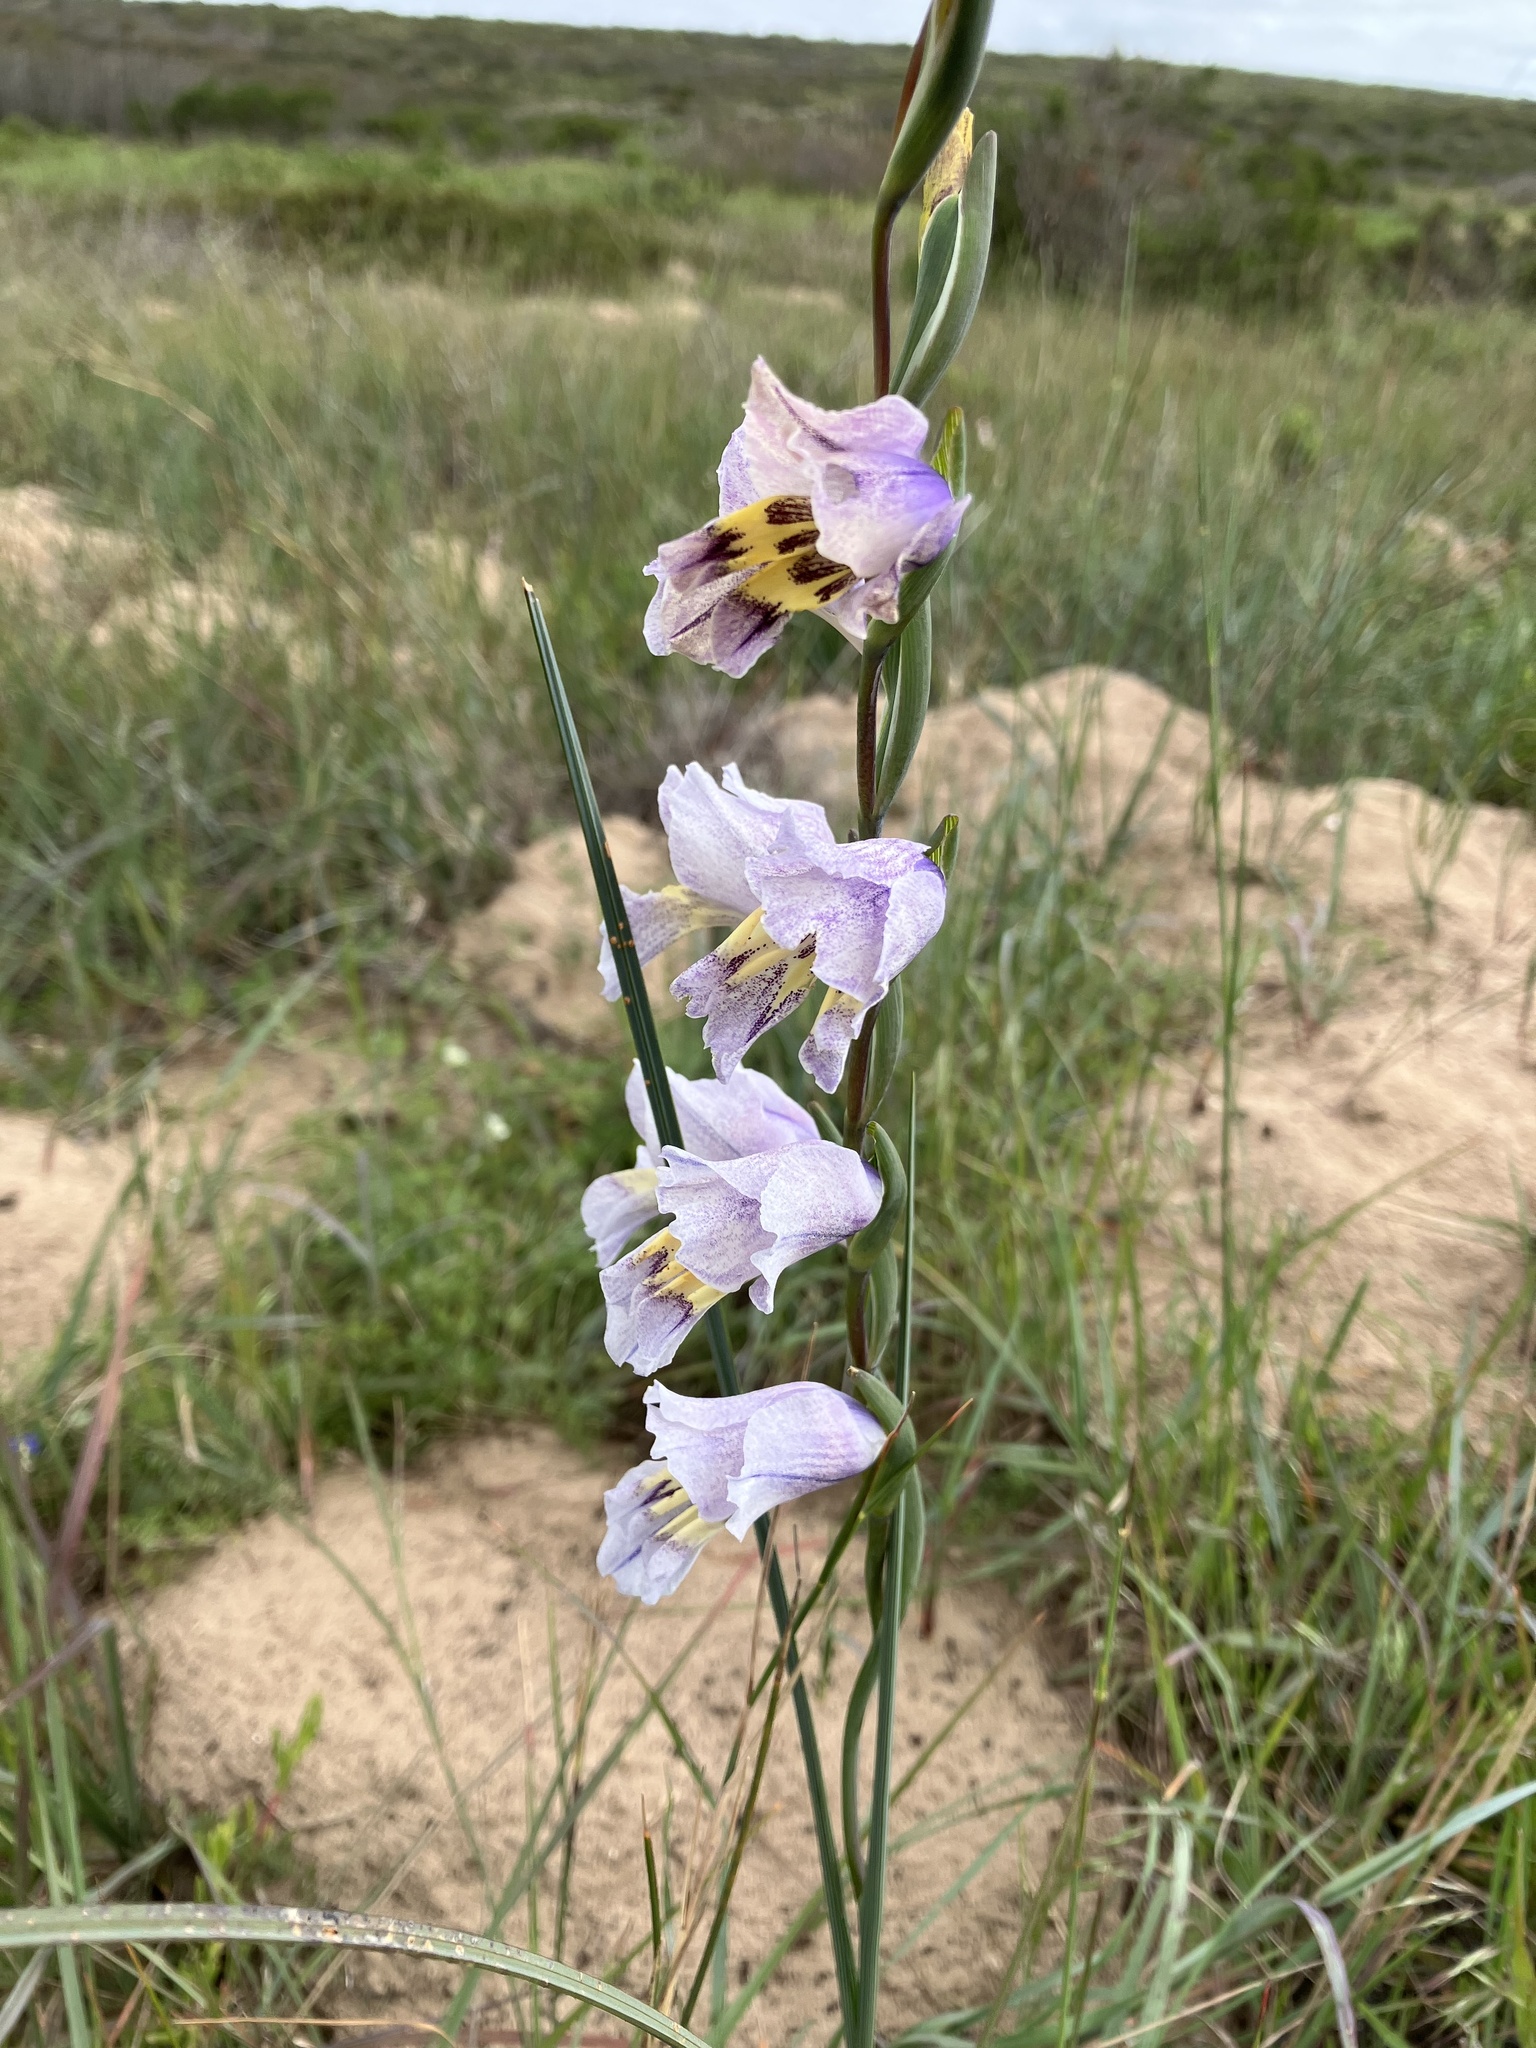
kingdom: Plantae
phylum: Tracheophyta
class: Liliopsida
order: Asparagales
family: Iridaceae
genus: Gladiolus
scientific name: Gladiolus carinatus
